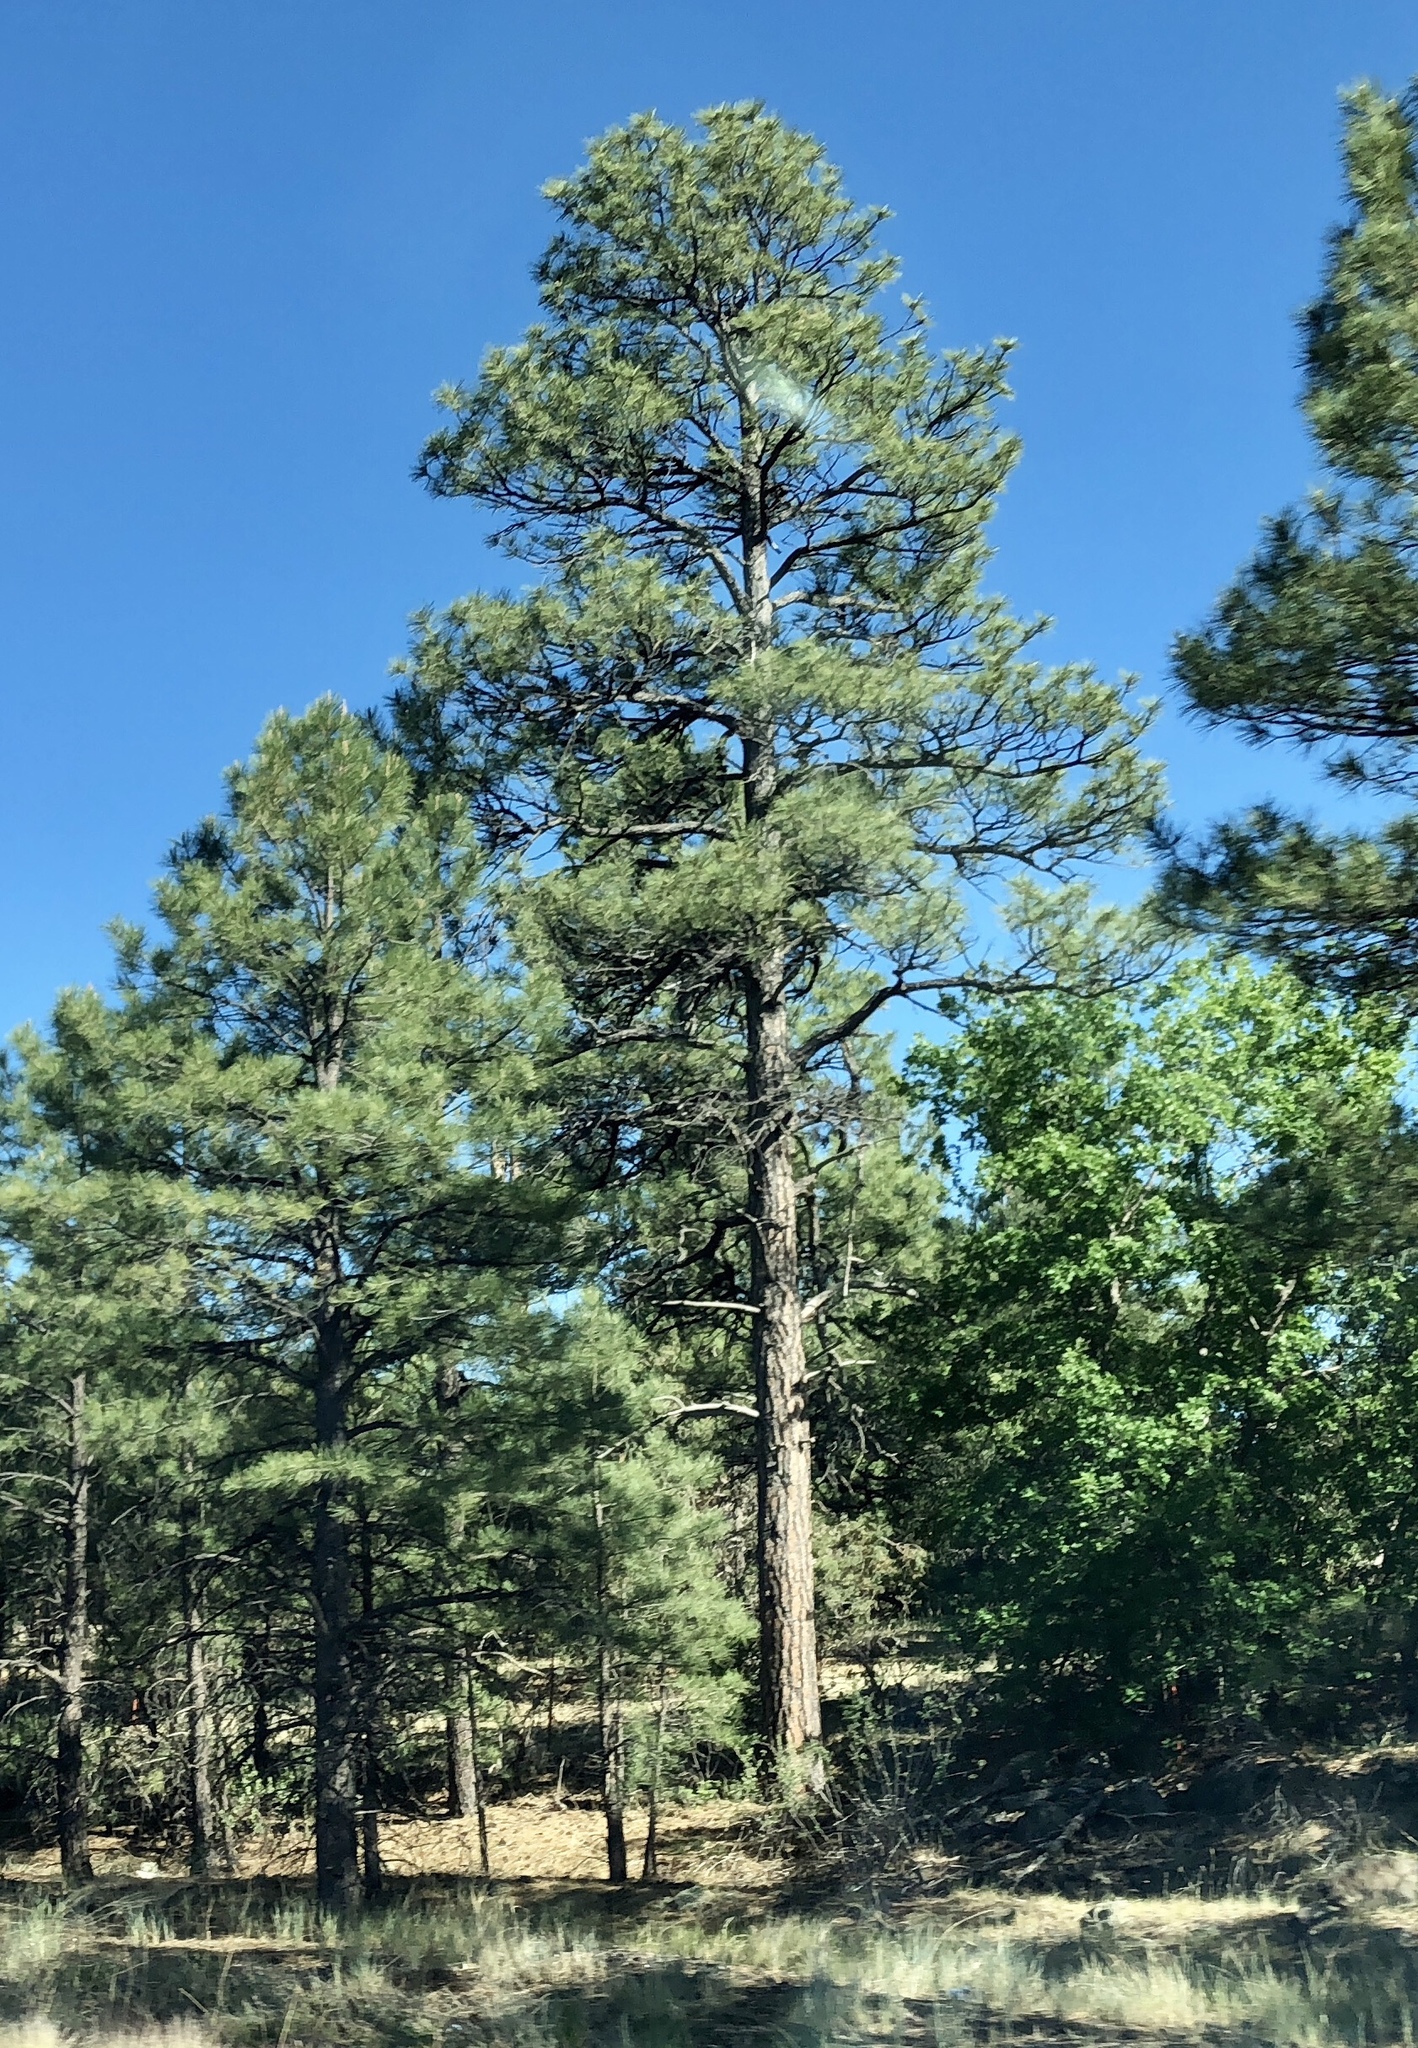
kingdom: Plantae
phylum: Tracheophyta
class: Pinopsida
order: Pinales
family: Pinaceae
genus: Pinus
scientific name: Pinus ponderosa
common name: Western yellow-pine
